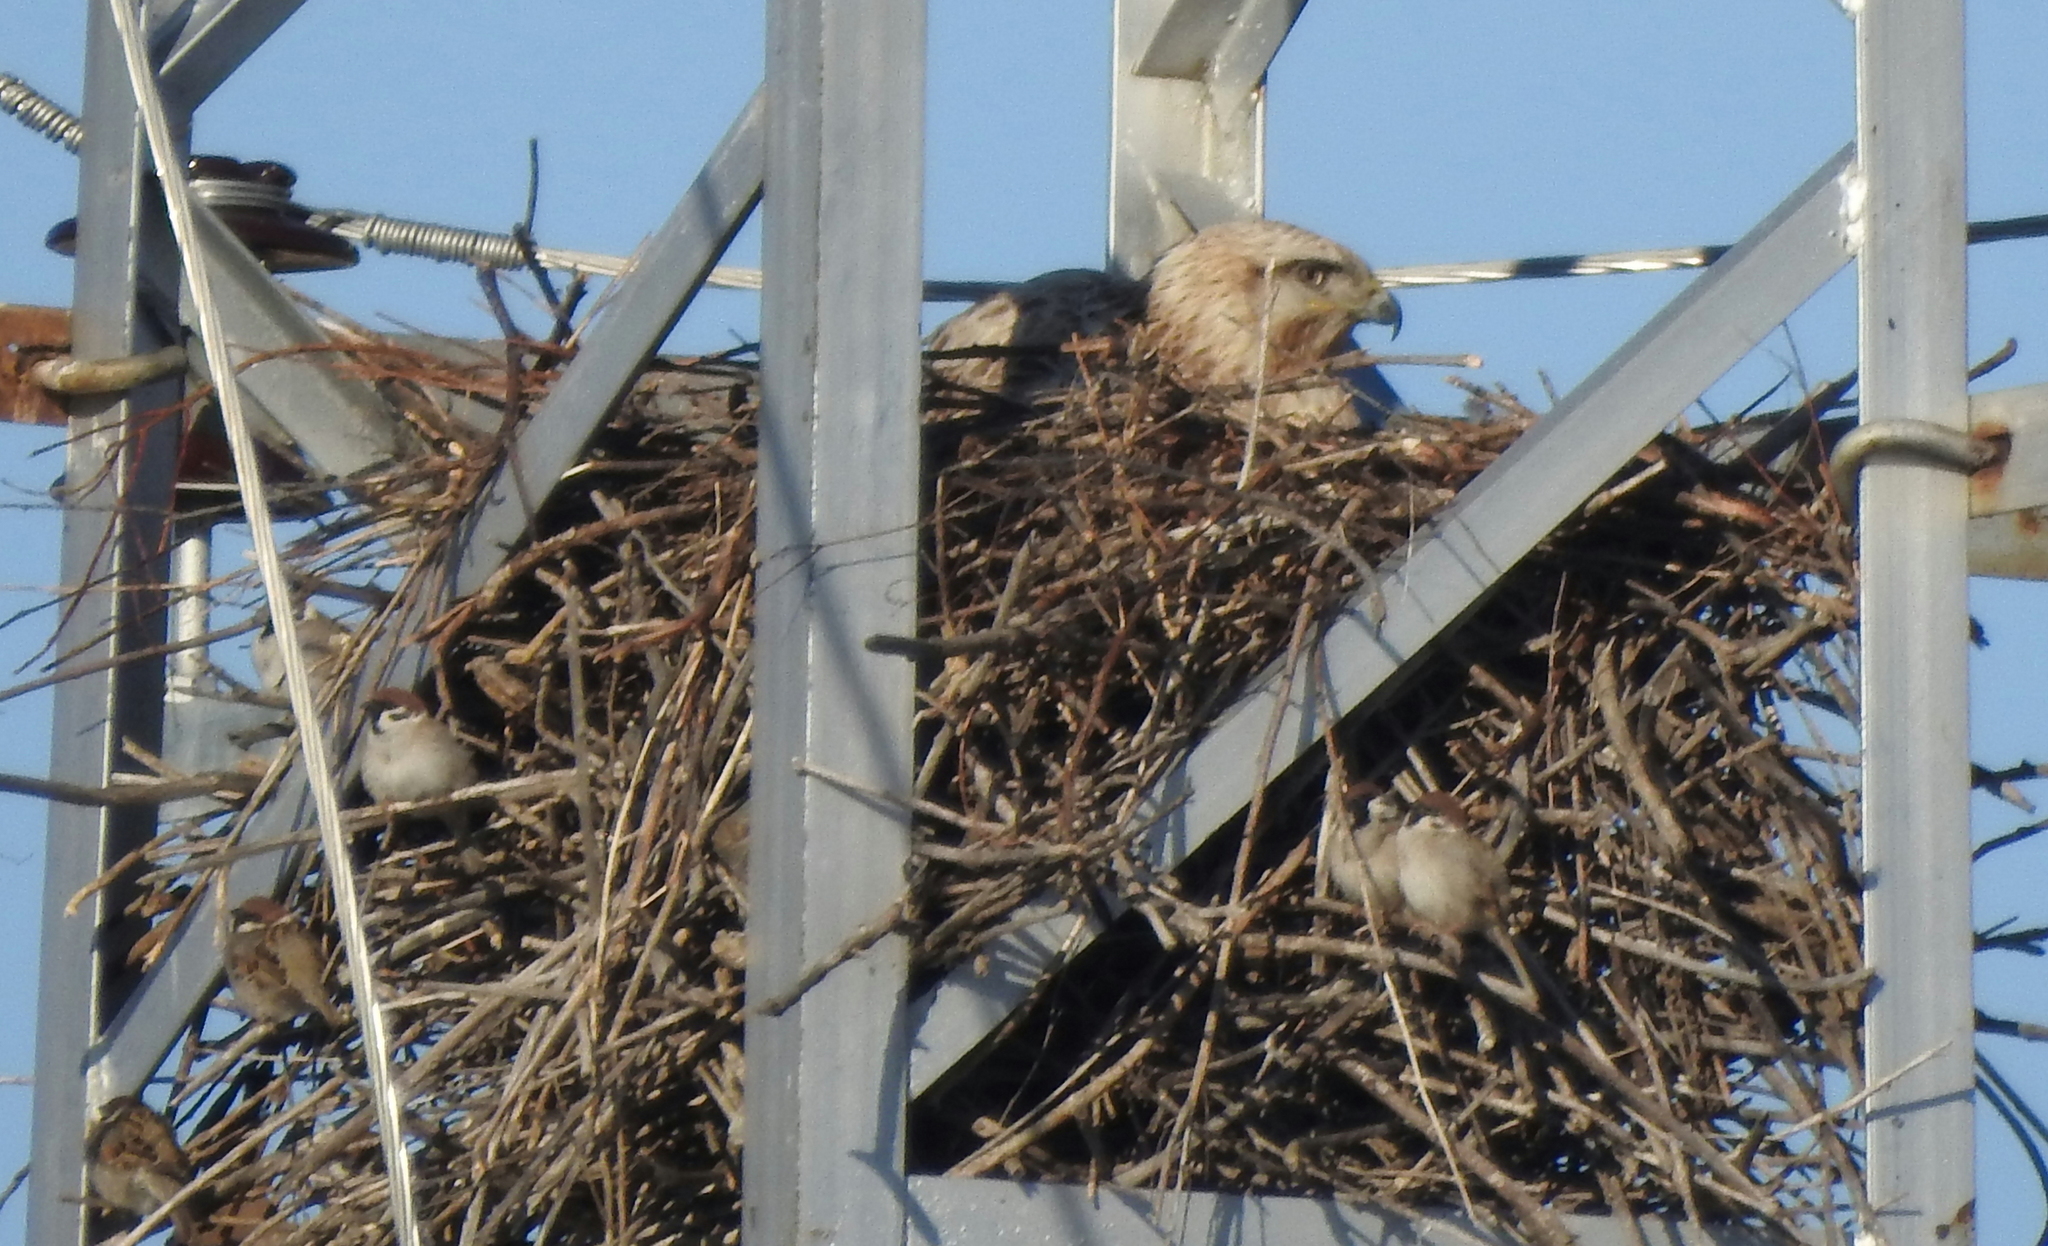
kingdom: Animalia
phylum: Chordata
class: Aves
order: Accipitriformes
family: Accipitridae
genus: Buteo
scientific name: Buteo hemilasius
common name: Upland buzzard
